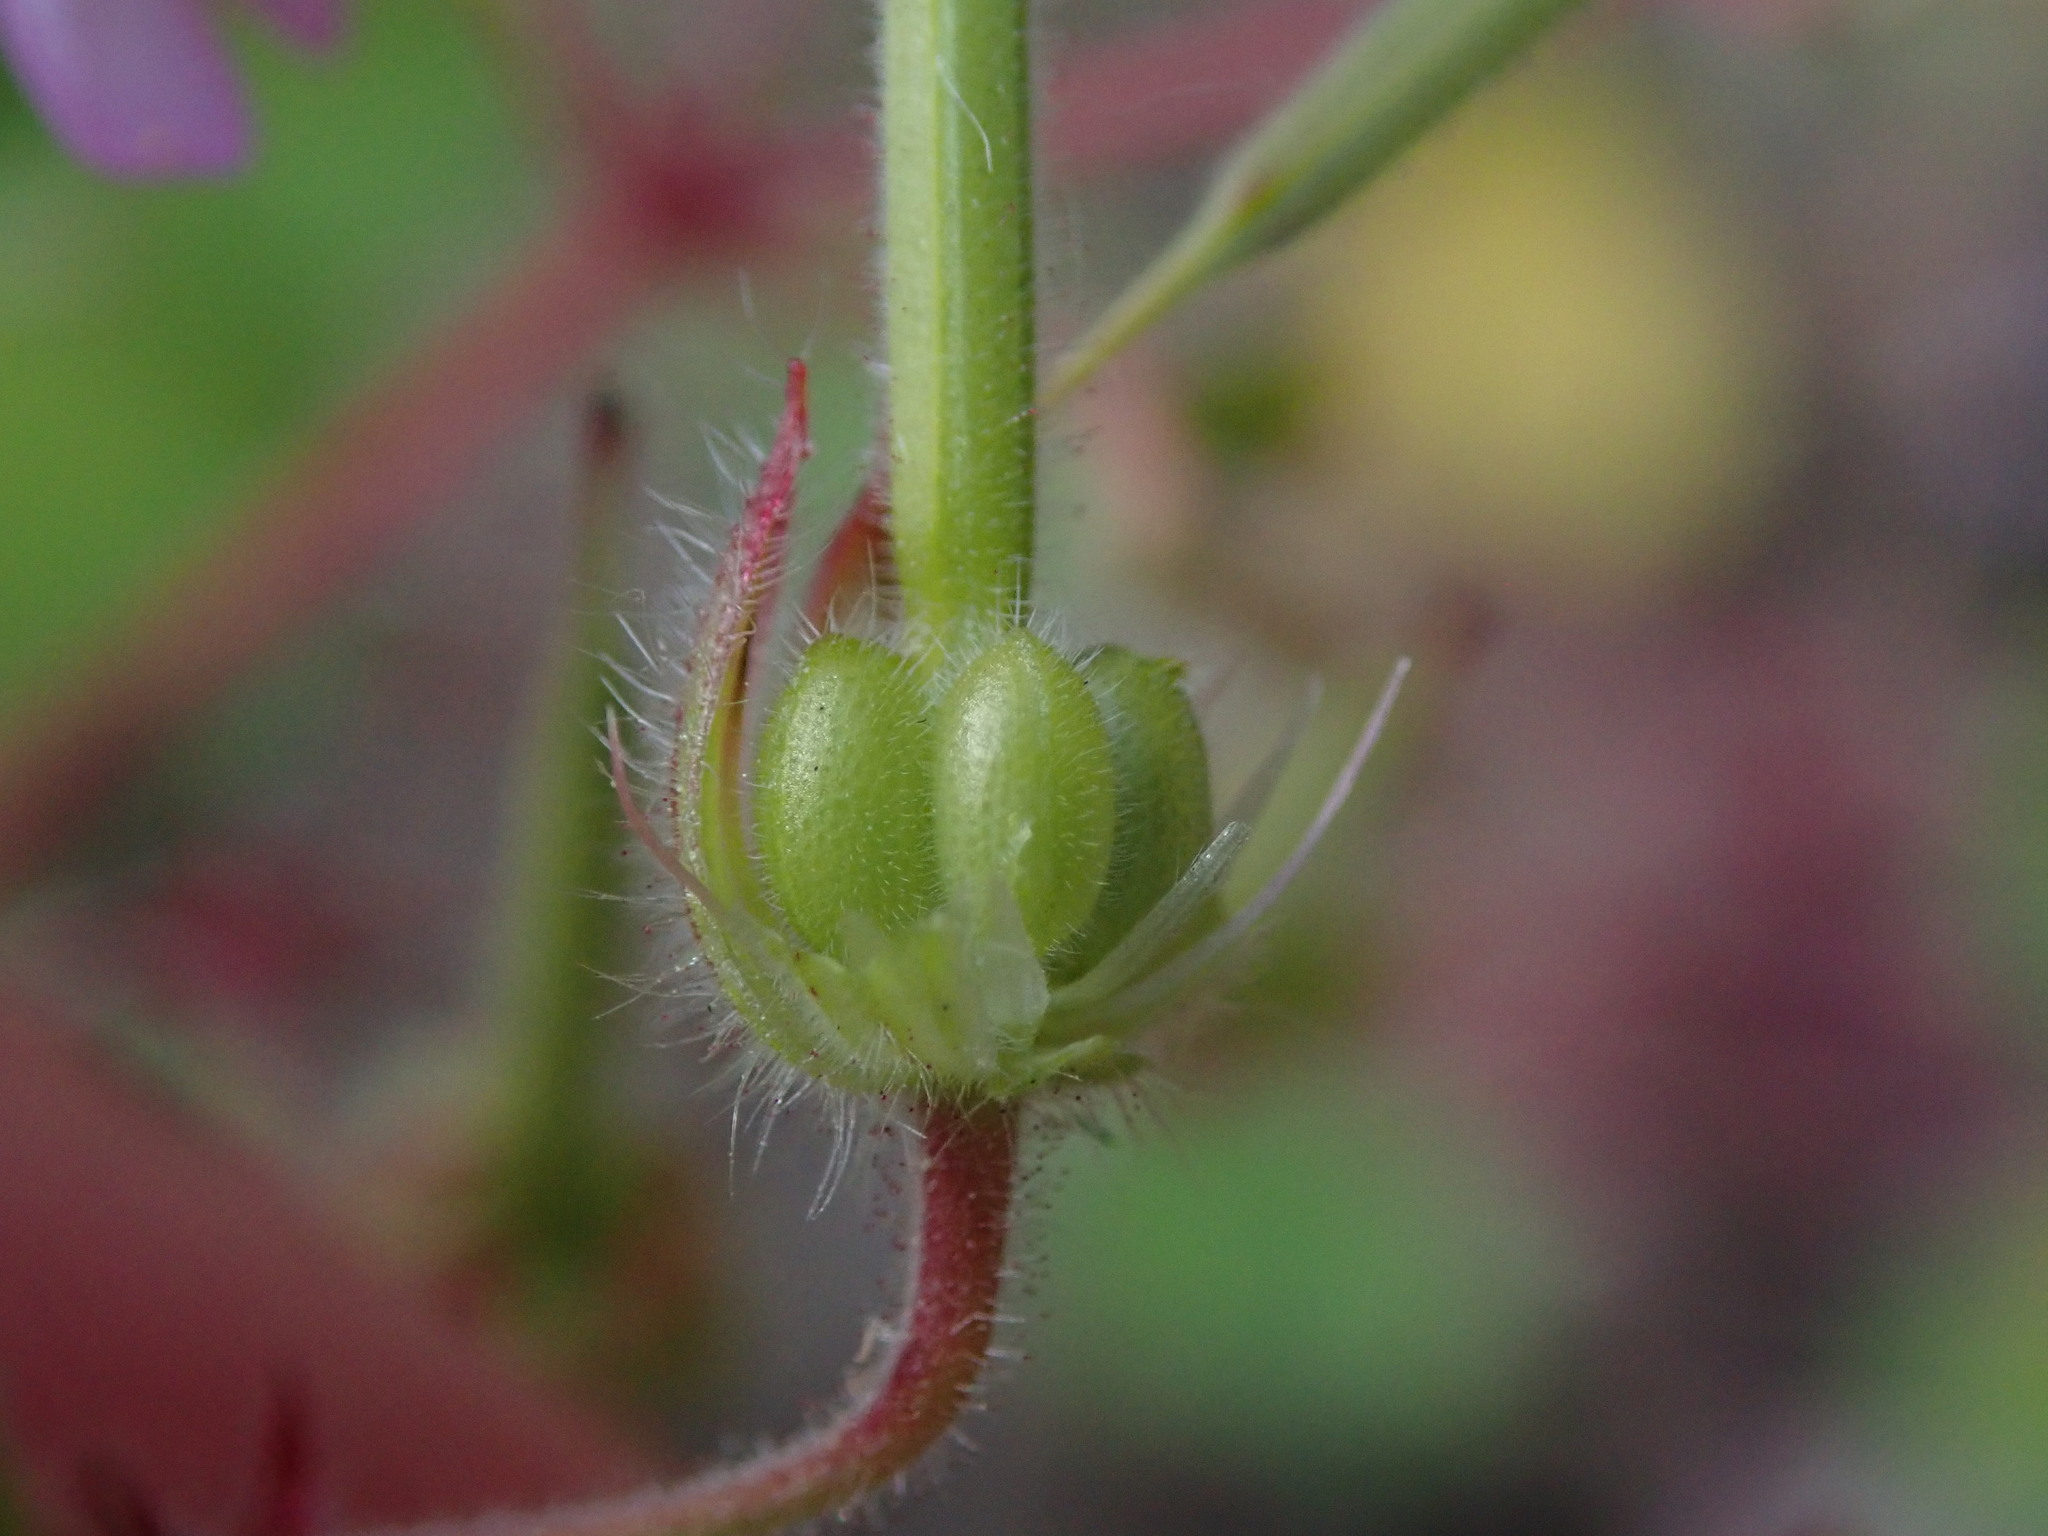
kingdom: Plantae
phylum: Tracheophyta
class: Magnoliopsida
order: Geraniales
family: Geraniaceae
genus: Geranium
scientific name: Geranium rotundifolium
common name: Round-leaved crane's-bill
